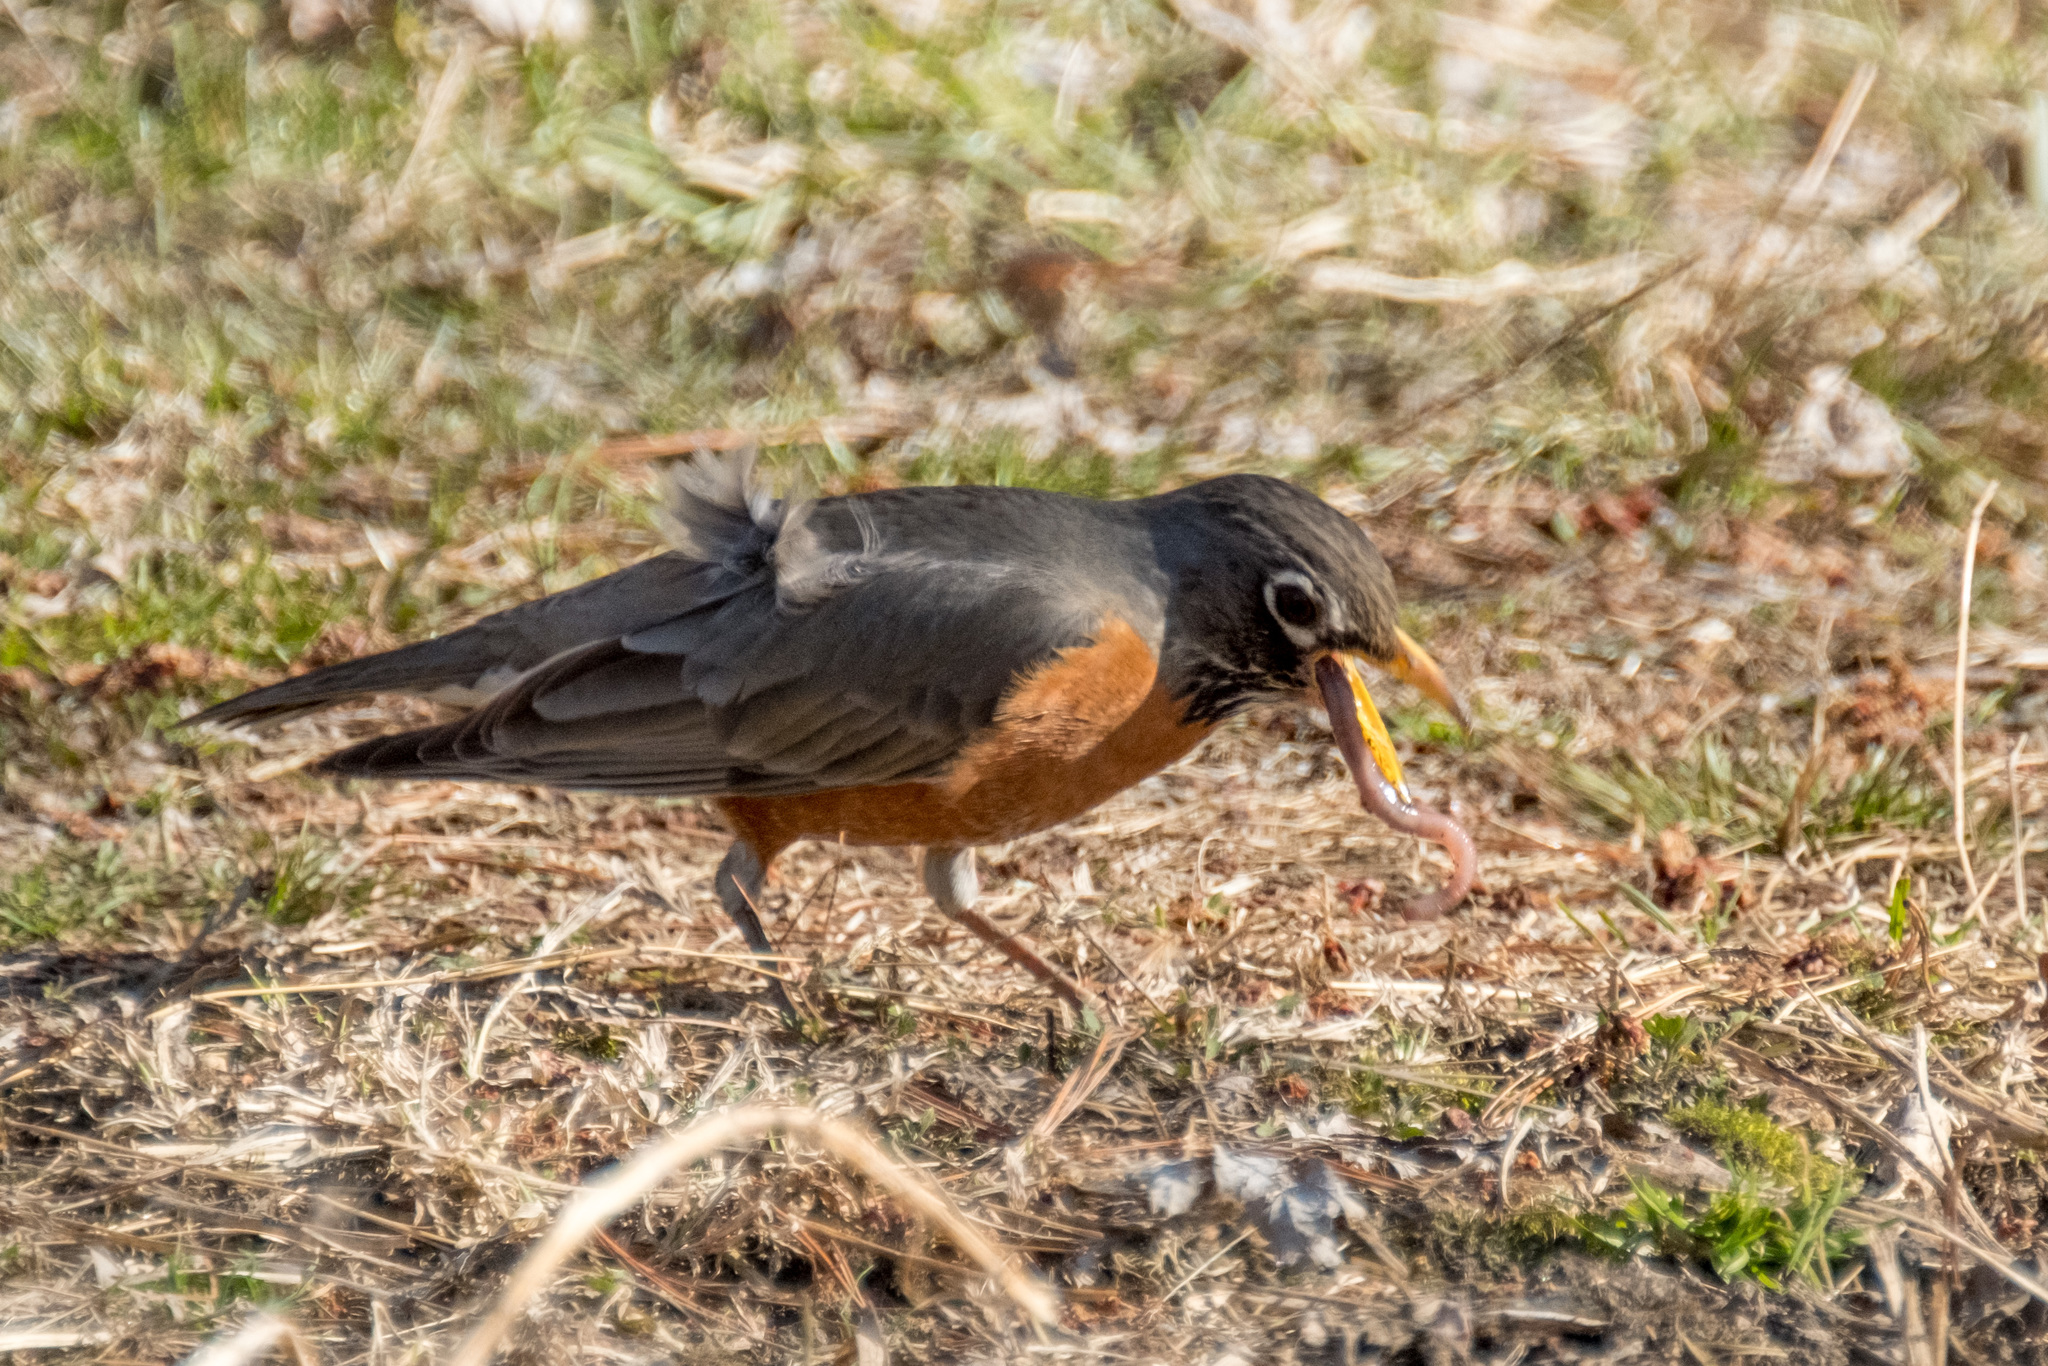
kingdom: Animalia
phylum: Chordata
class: Aves
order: Passeriformes
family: Turdidae
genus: Turdus
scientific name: Turdus migratorius
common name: American robin
